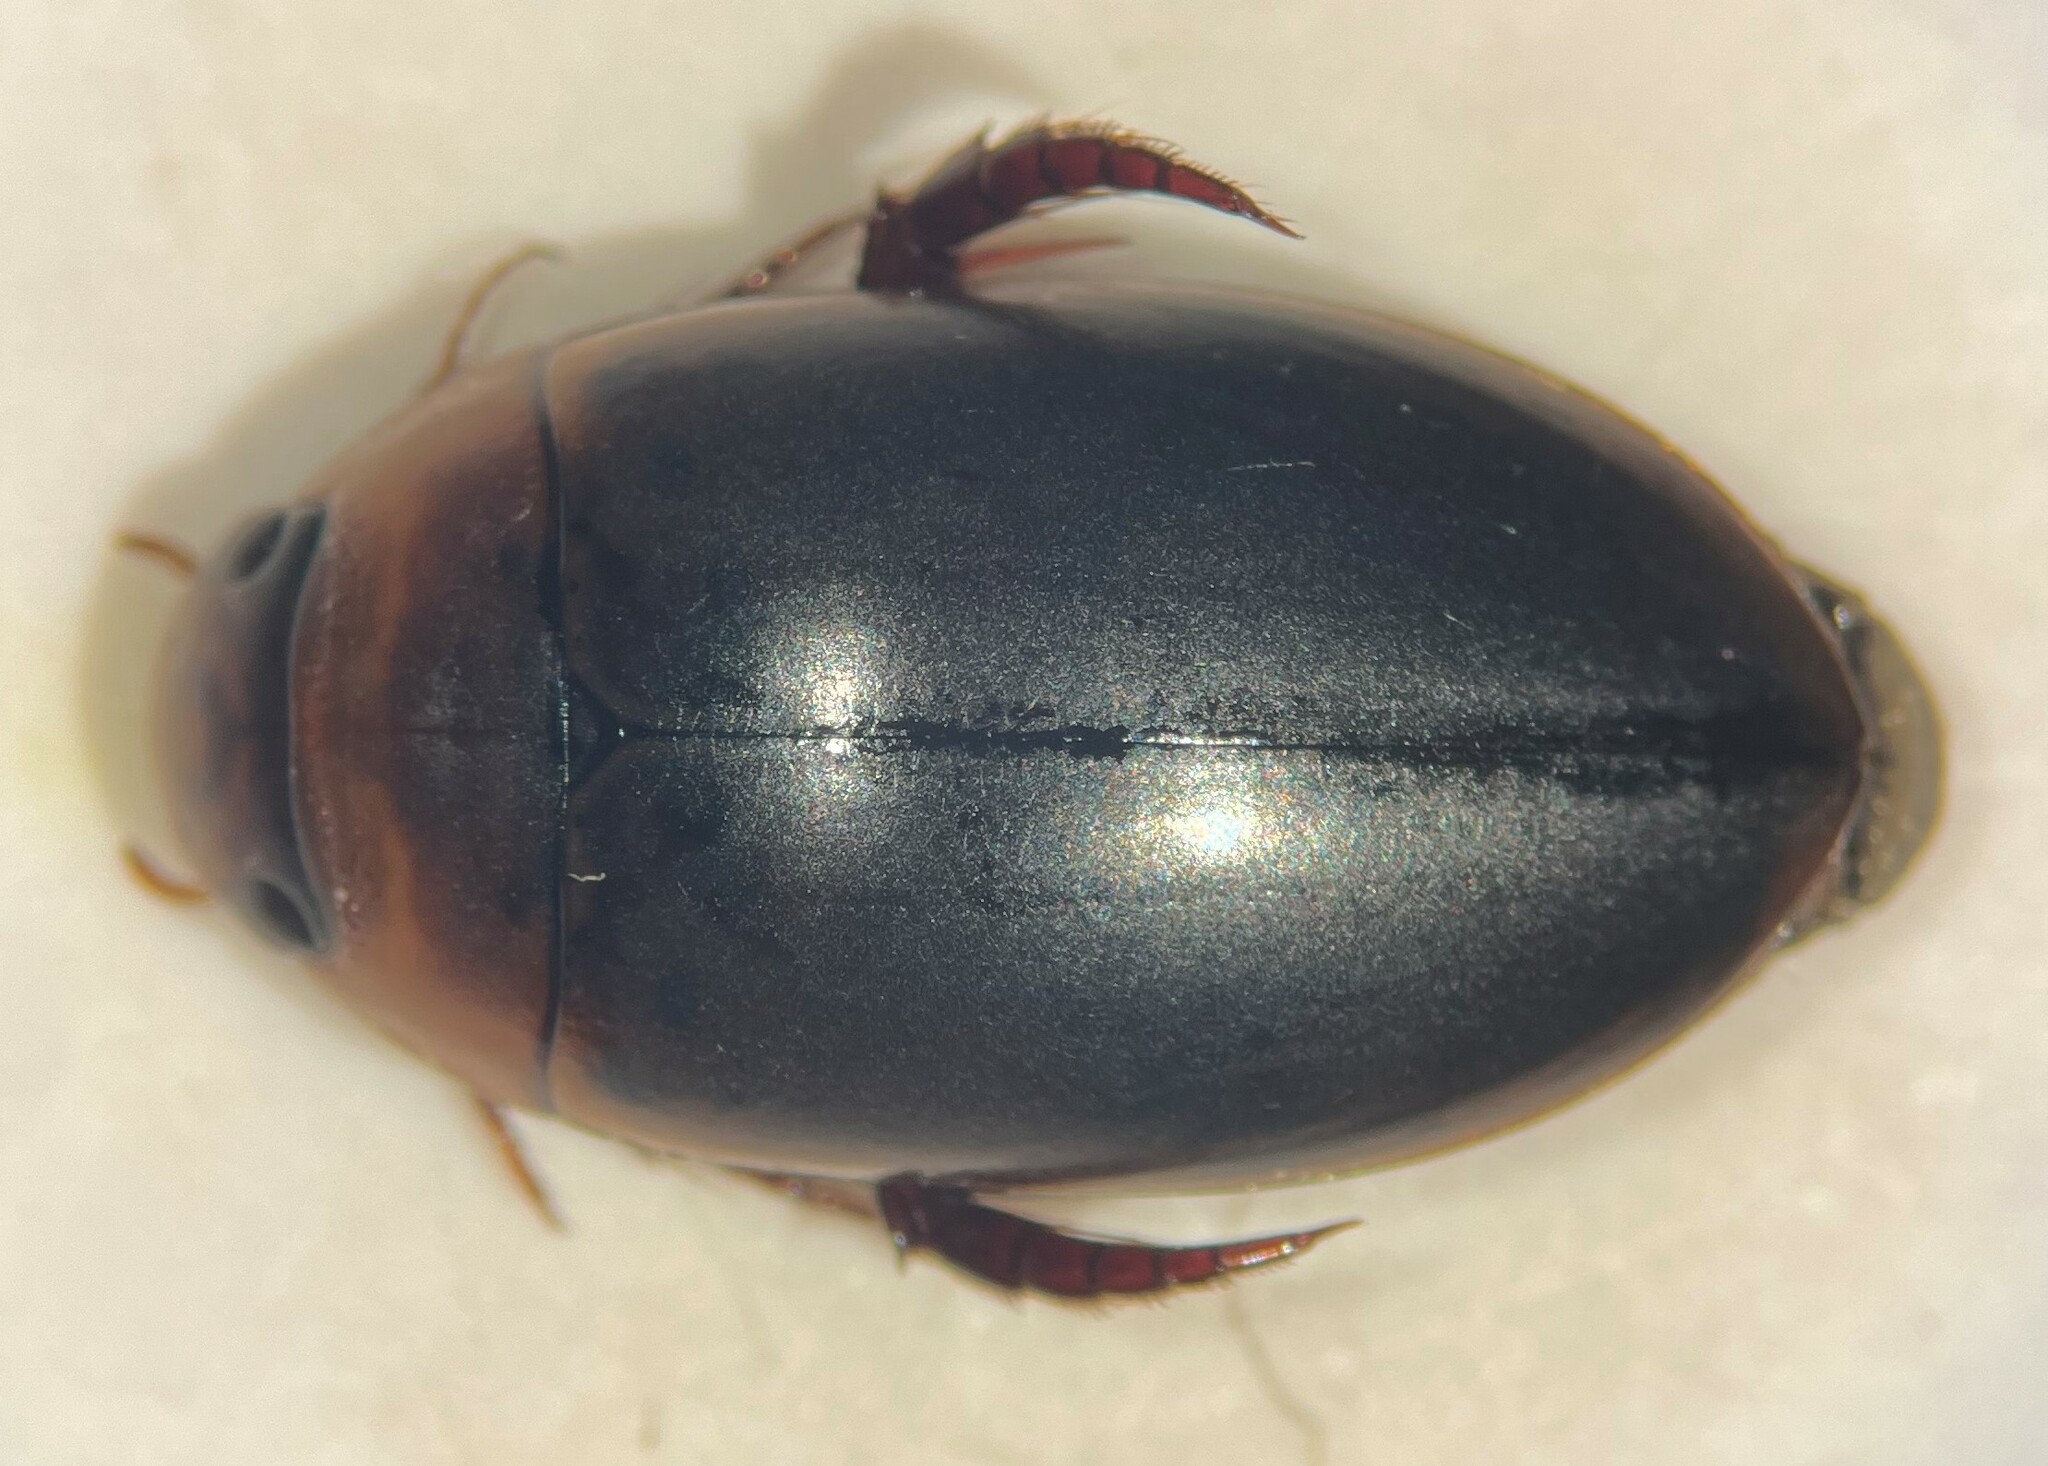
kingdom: Animalia
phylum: Arthropoda
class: Insecta
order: Coleoptera
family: Dytiscidae
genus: Hydaticus
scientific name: Hydaticus piceus
